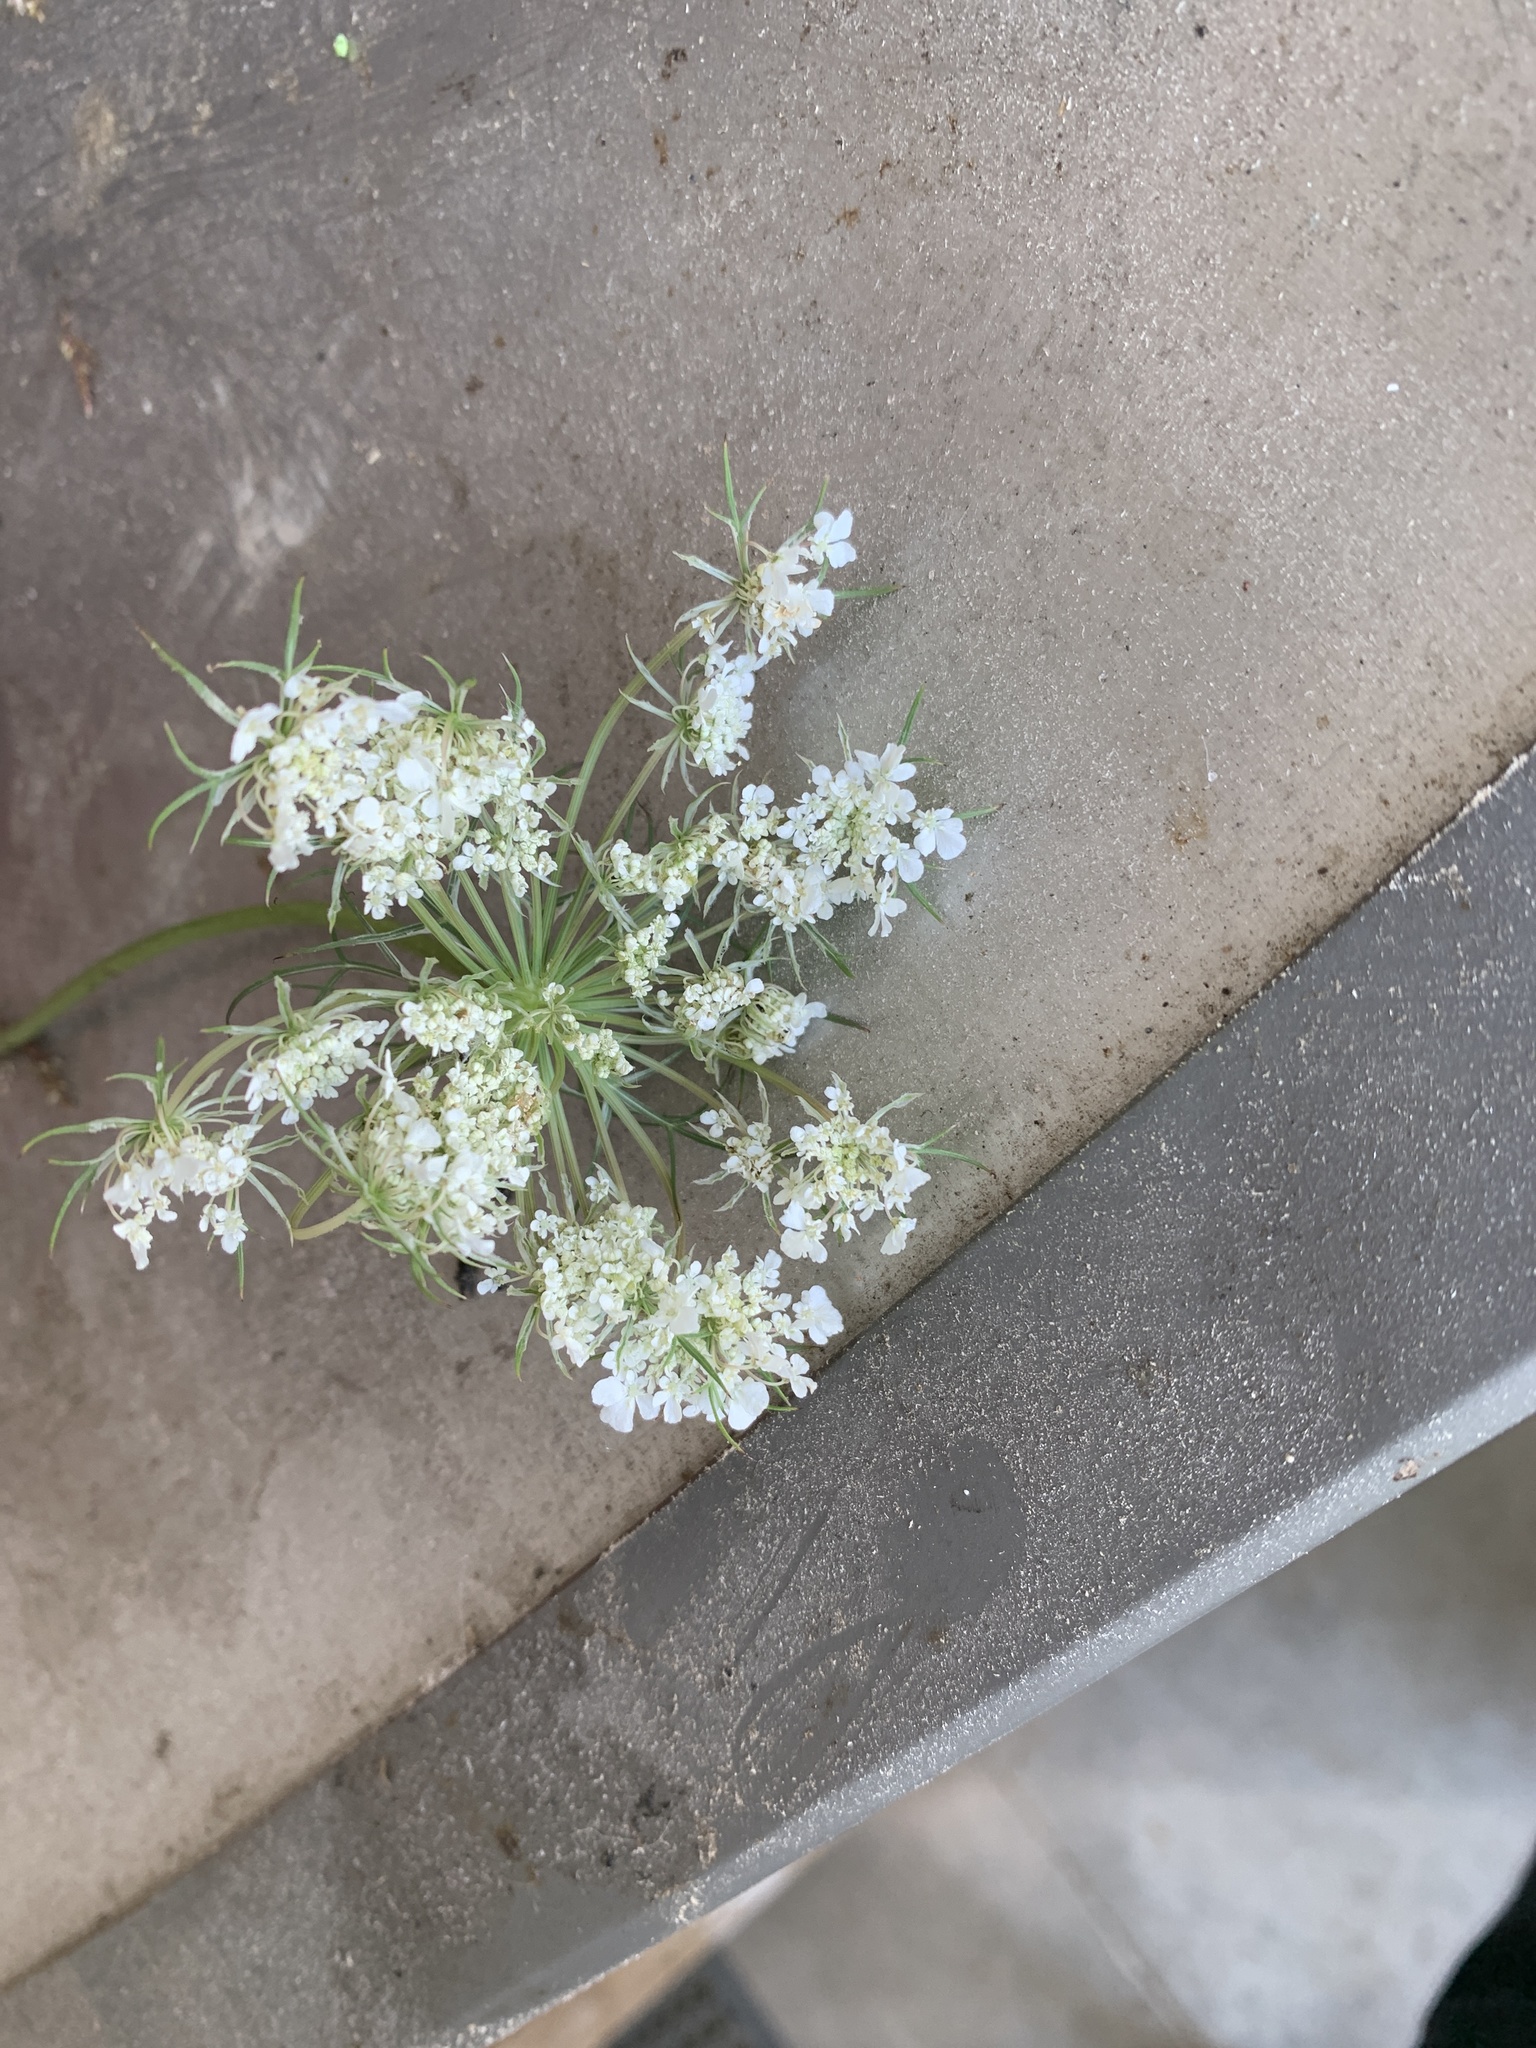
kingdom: Plantae
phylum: Tracheophyta
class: Magnoliopsida
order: Apiales
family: Apiaceae
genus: Daucus
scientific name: Daucus carota
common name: Wild carrot
